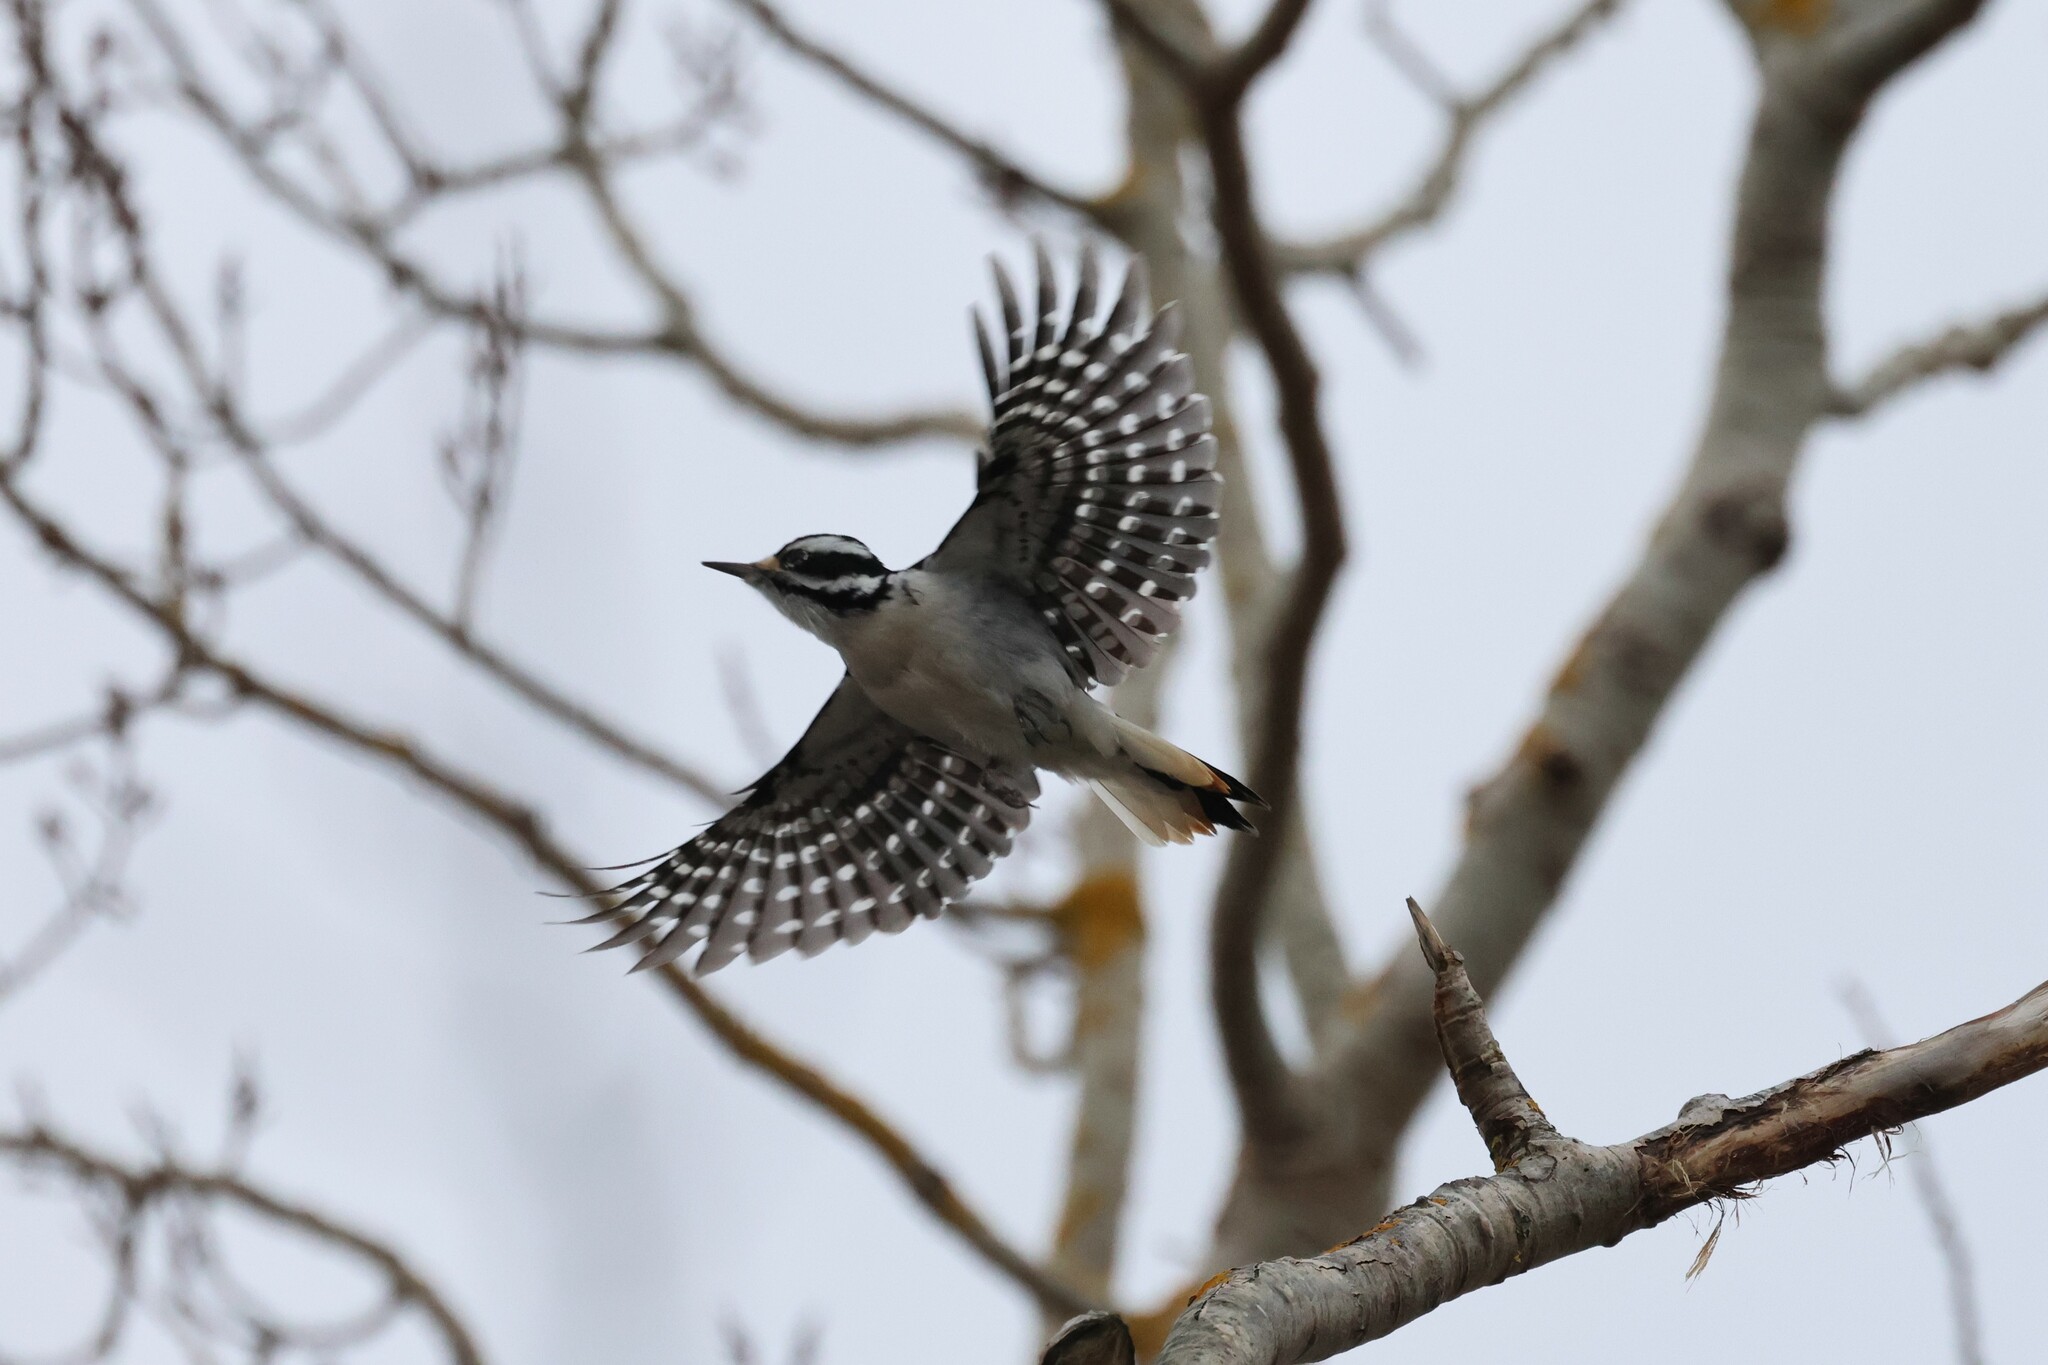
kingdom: Animalia
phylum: Chordata
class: Aves
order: Piciformes
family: Picidae
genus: Leuconotopicus
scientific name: Leuconotopicus villosus
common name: Hairy woodpecker
